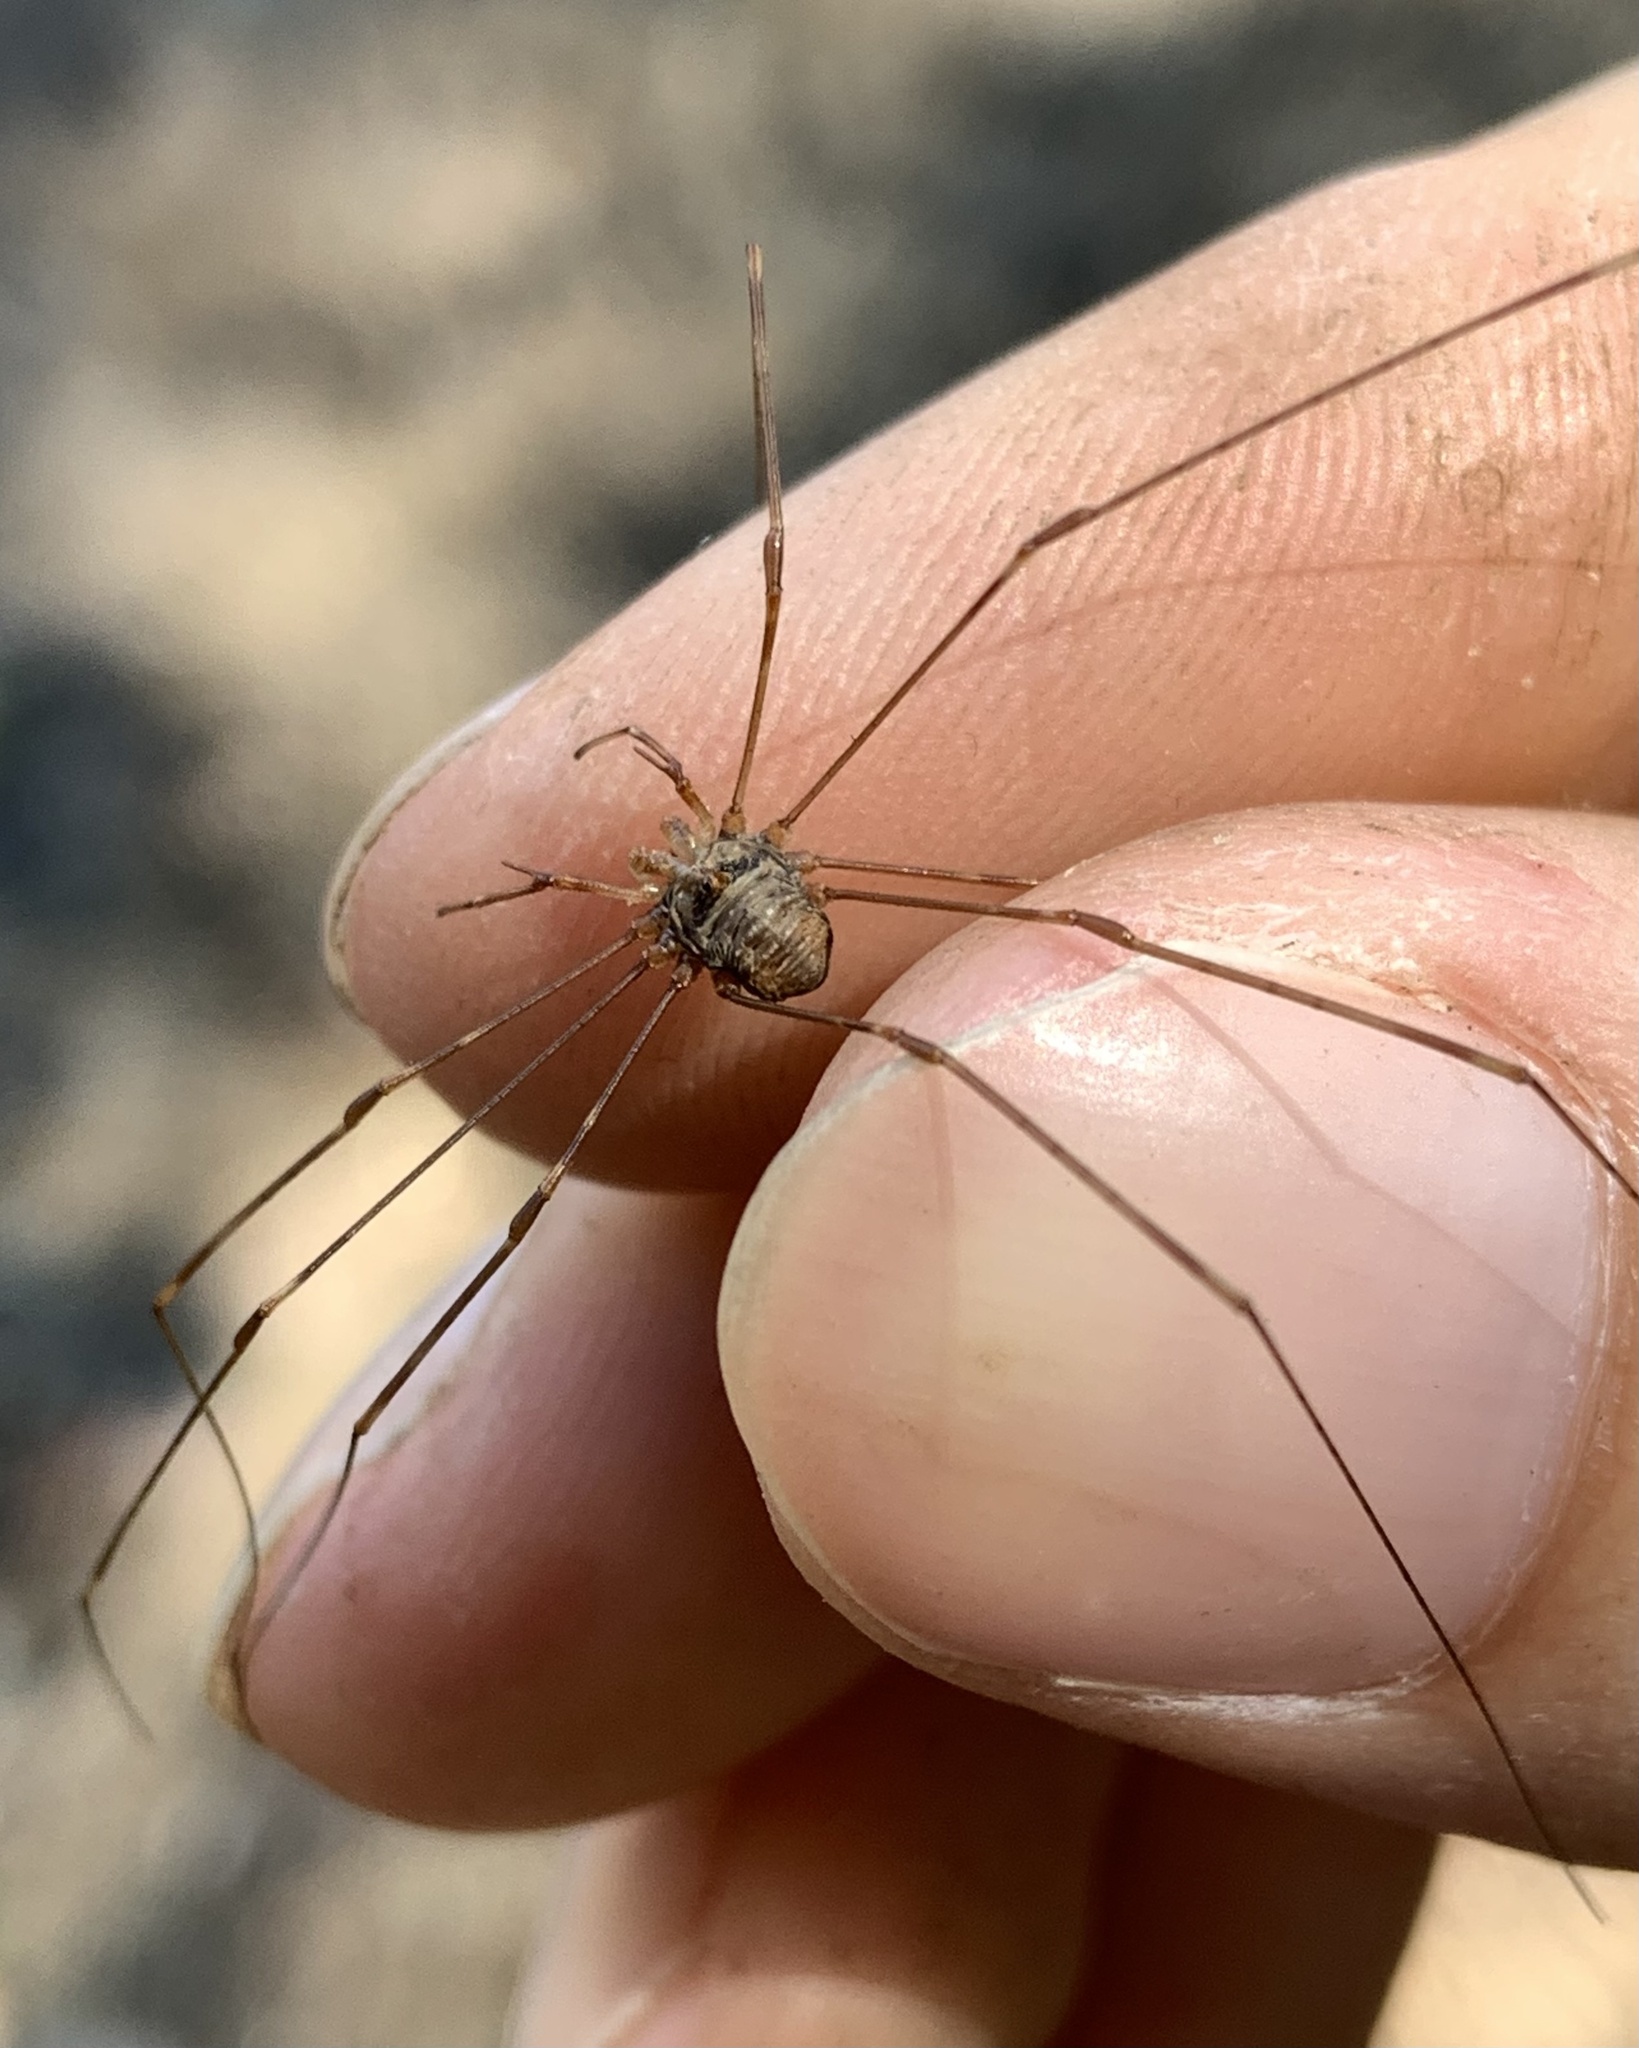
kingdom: Animalia
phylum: Arthropoda
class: Arachnida
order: Opiliones
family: Phalangiidae
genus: Dicranopalpus
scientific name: Dicranopalpus ramosus
